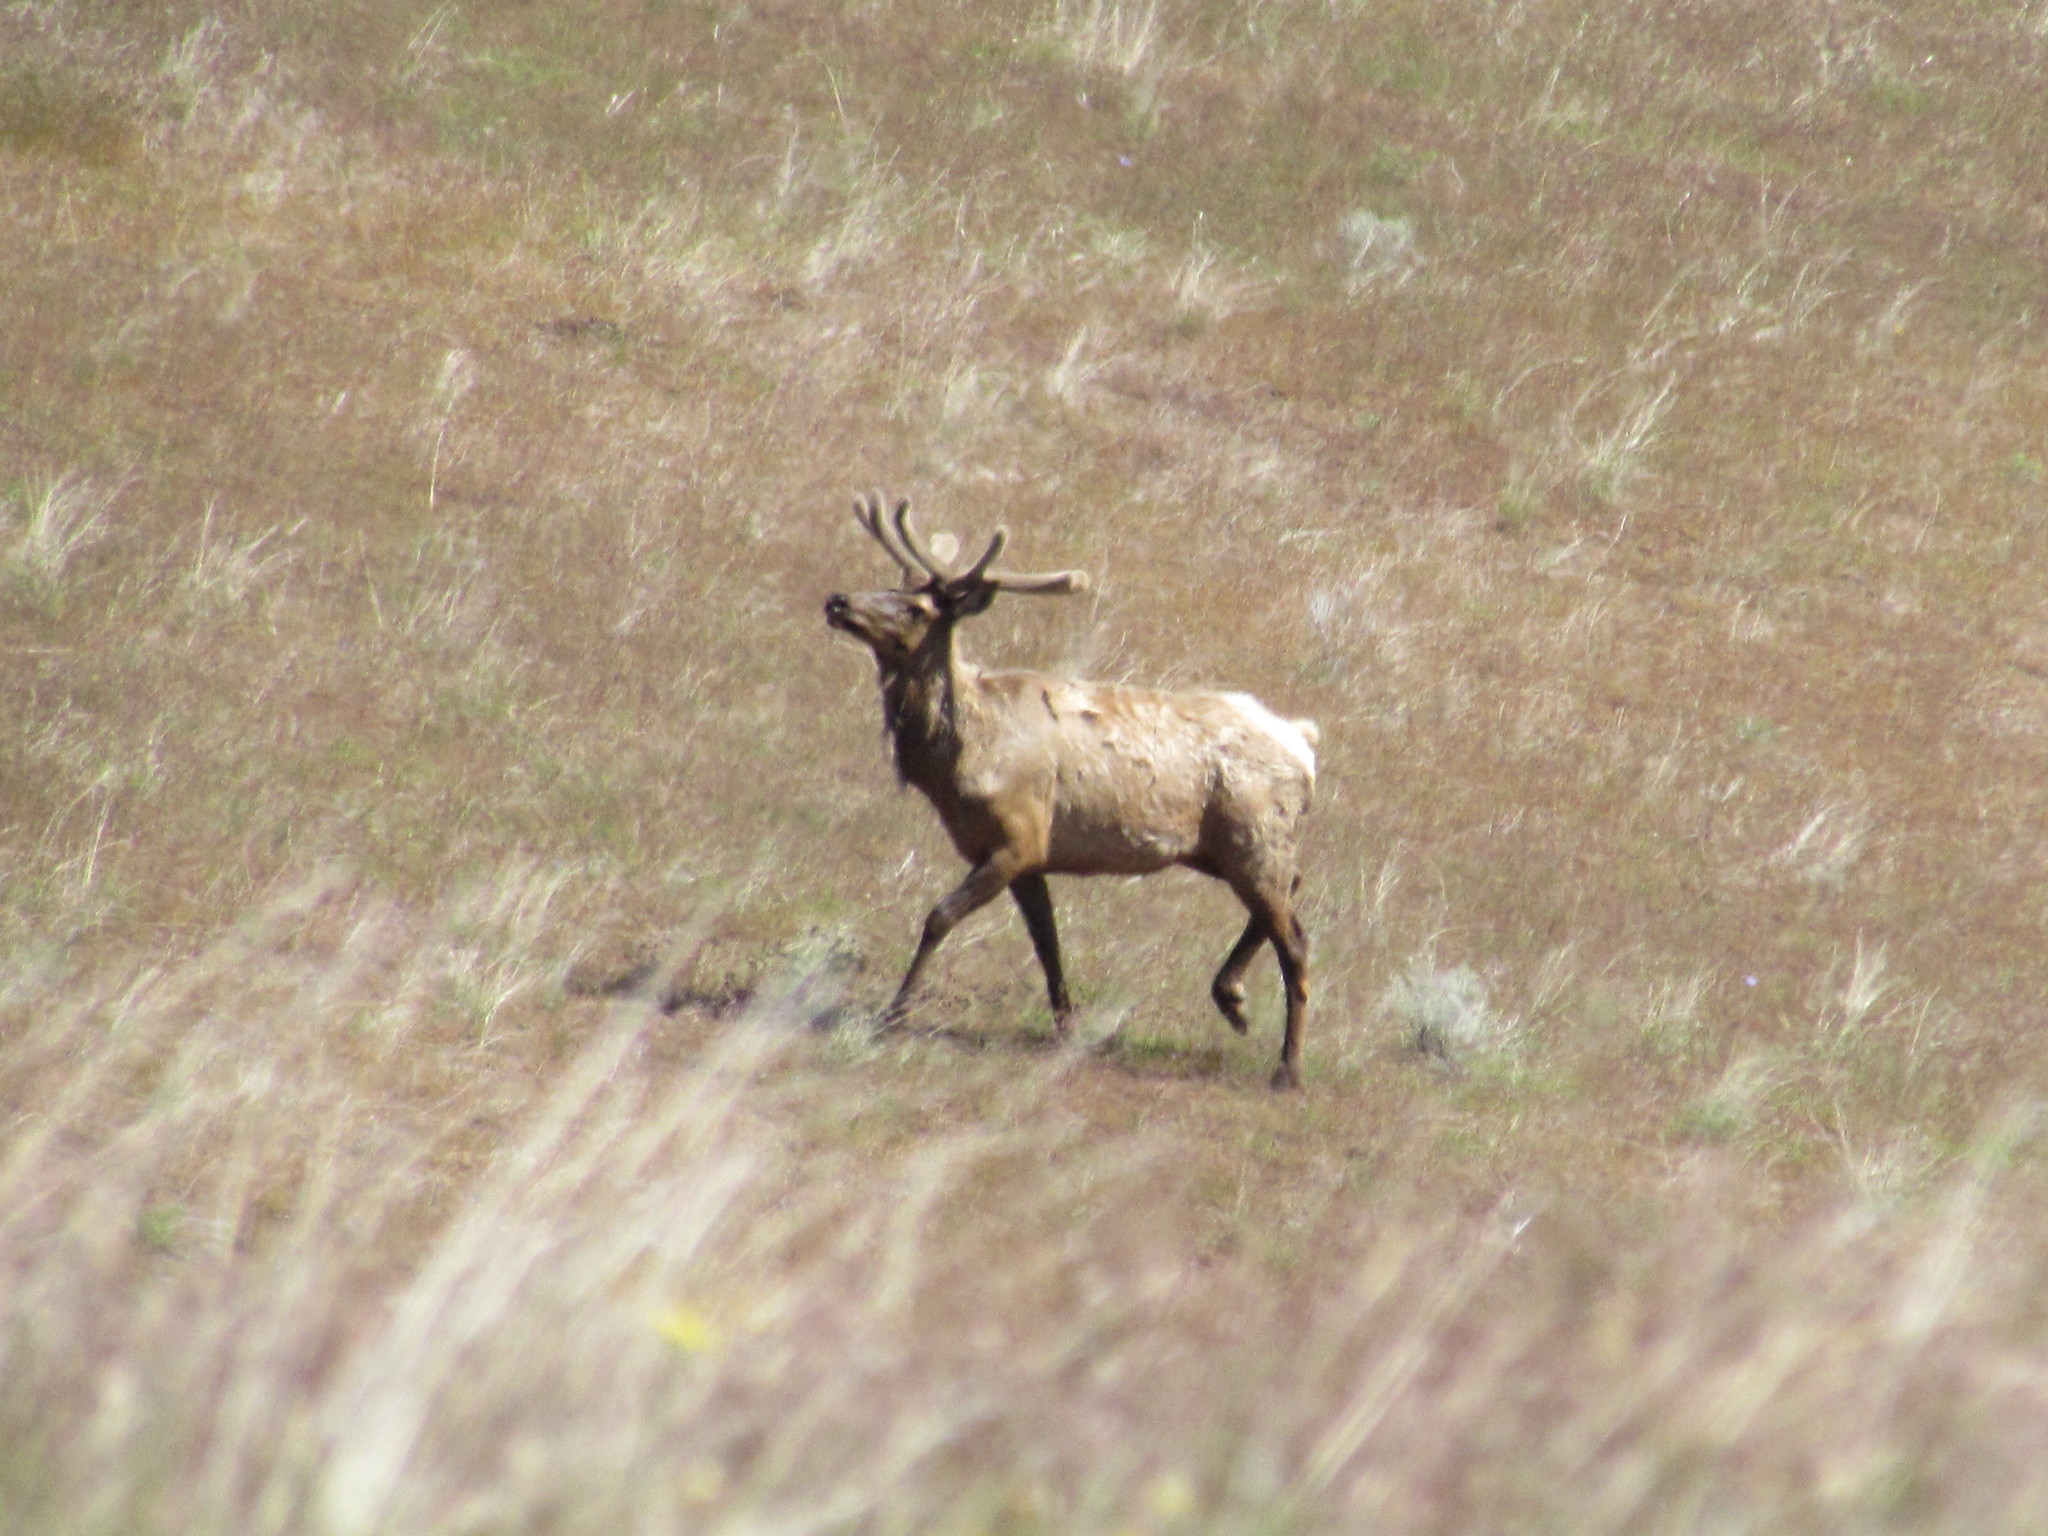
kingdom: Animalia
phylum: Chordata
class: Mammalia
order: Artiodactyla
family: Cervidae
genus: Cervus
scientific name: Cervus elaphus
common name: Red deer
